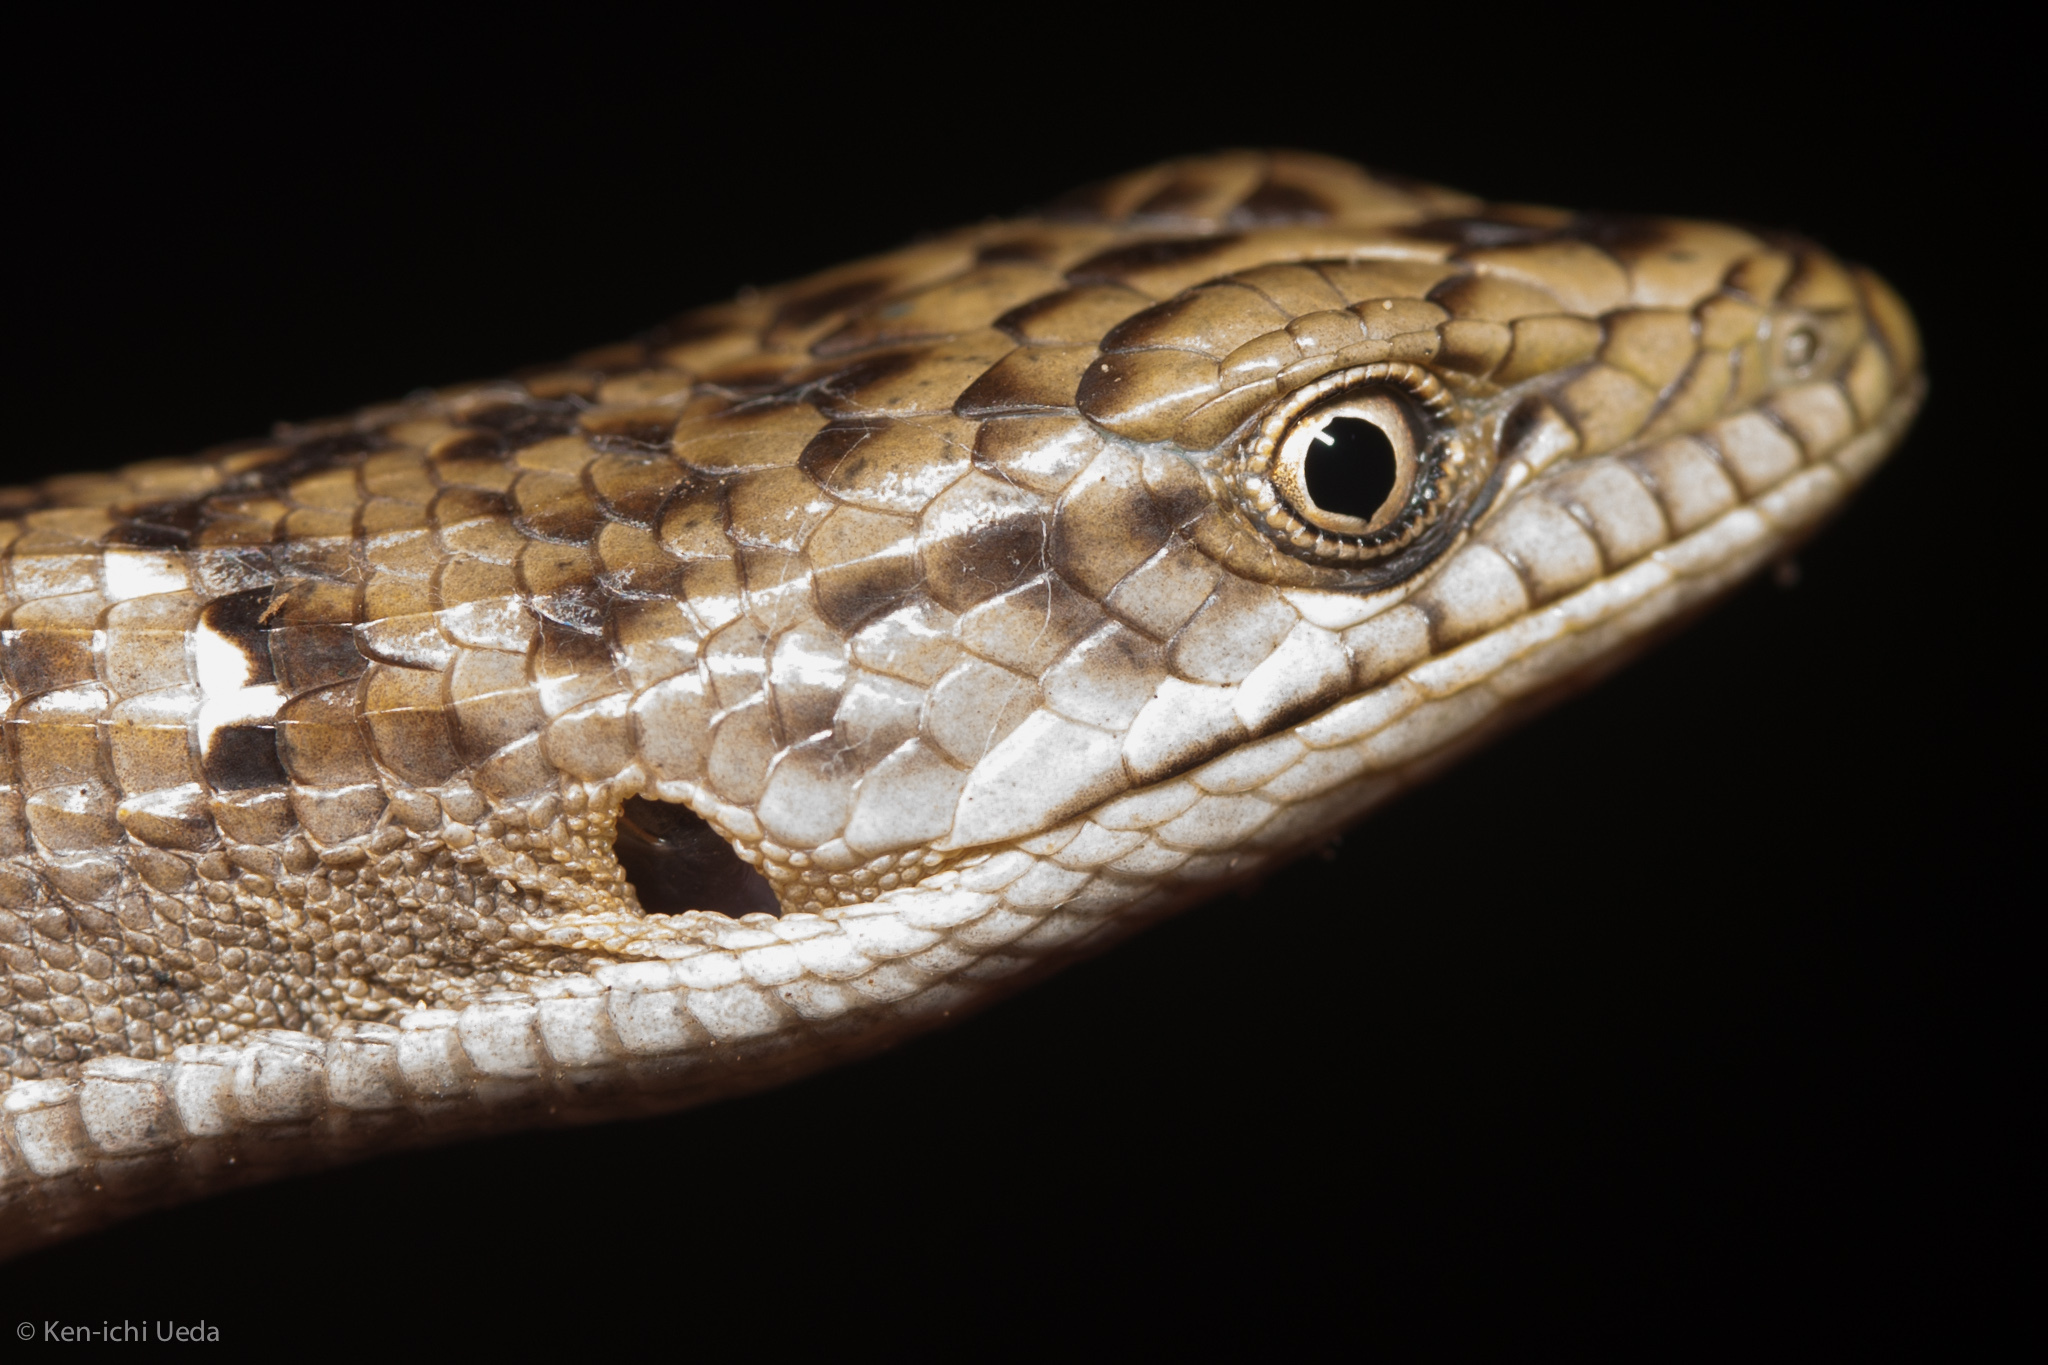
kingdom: Animalia
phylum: Chordata
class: Squamata
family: Anguidae
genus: Elgaria
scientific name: Elgaria multicarinata
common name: Southern alligator lizard
